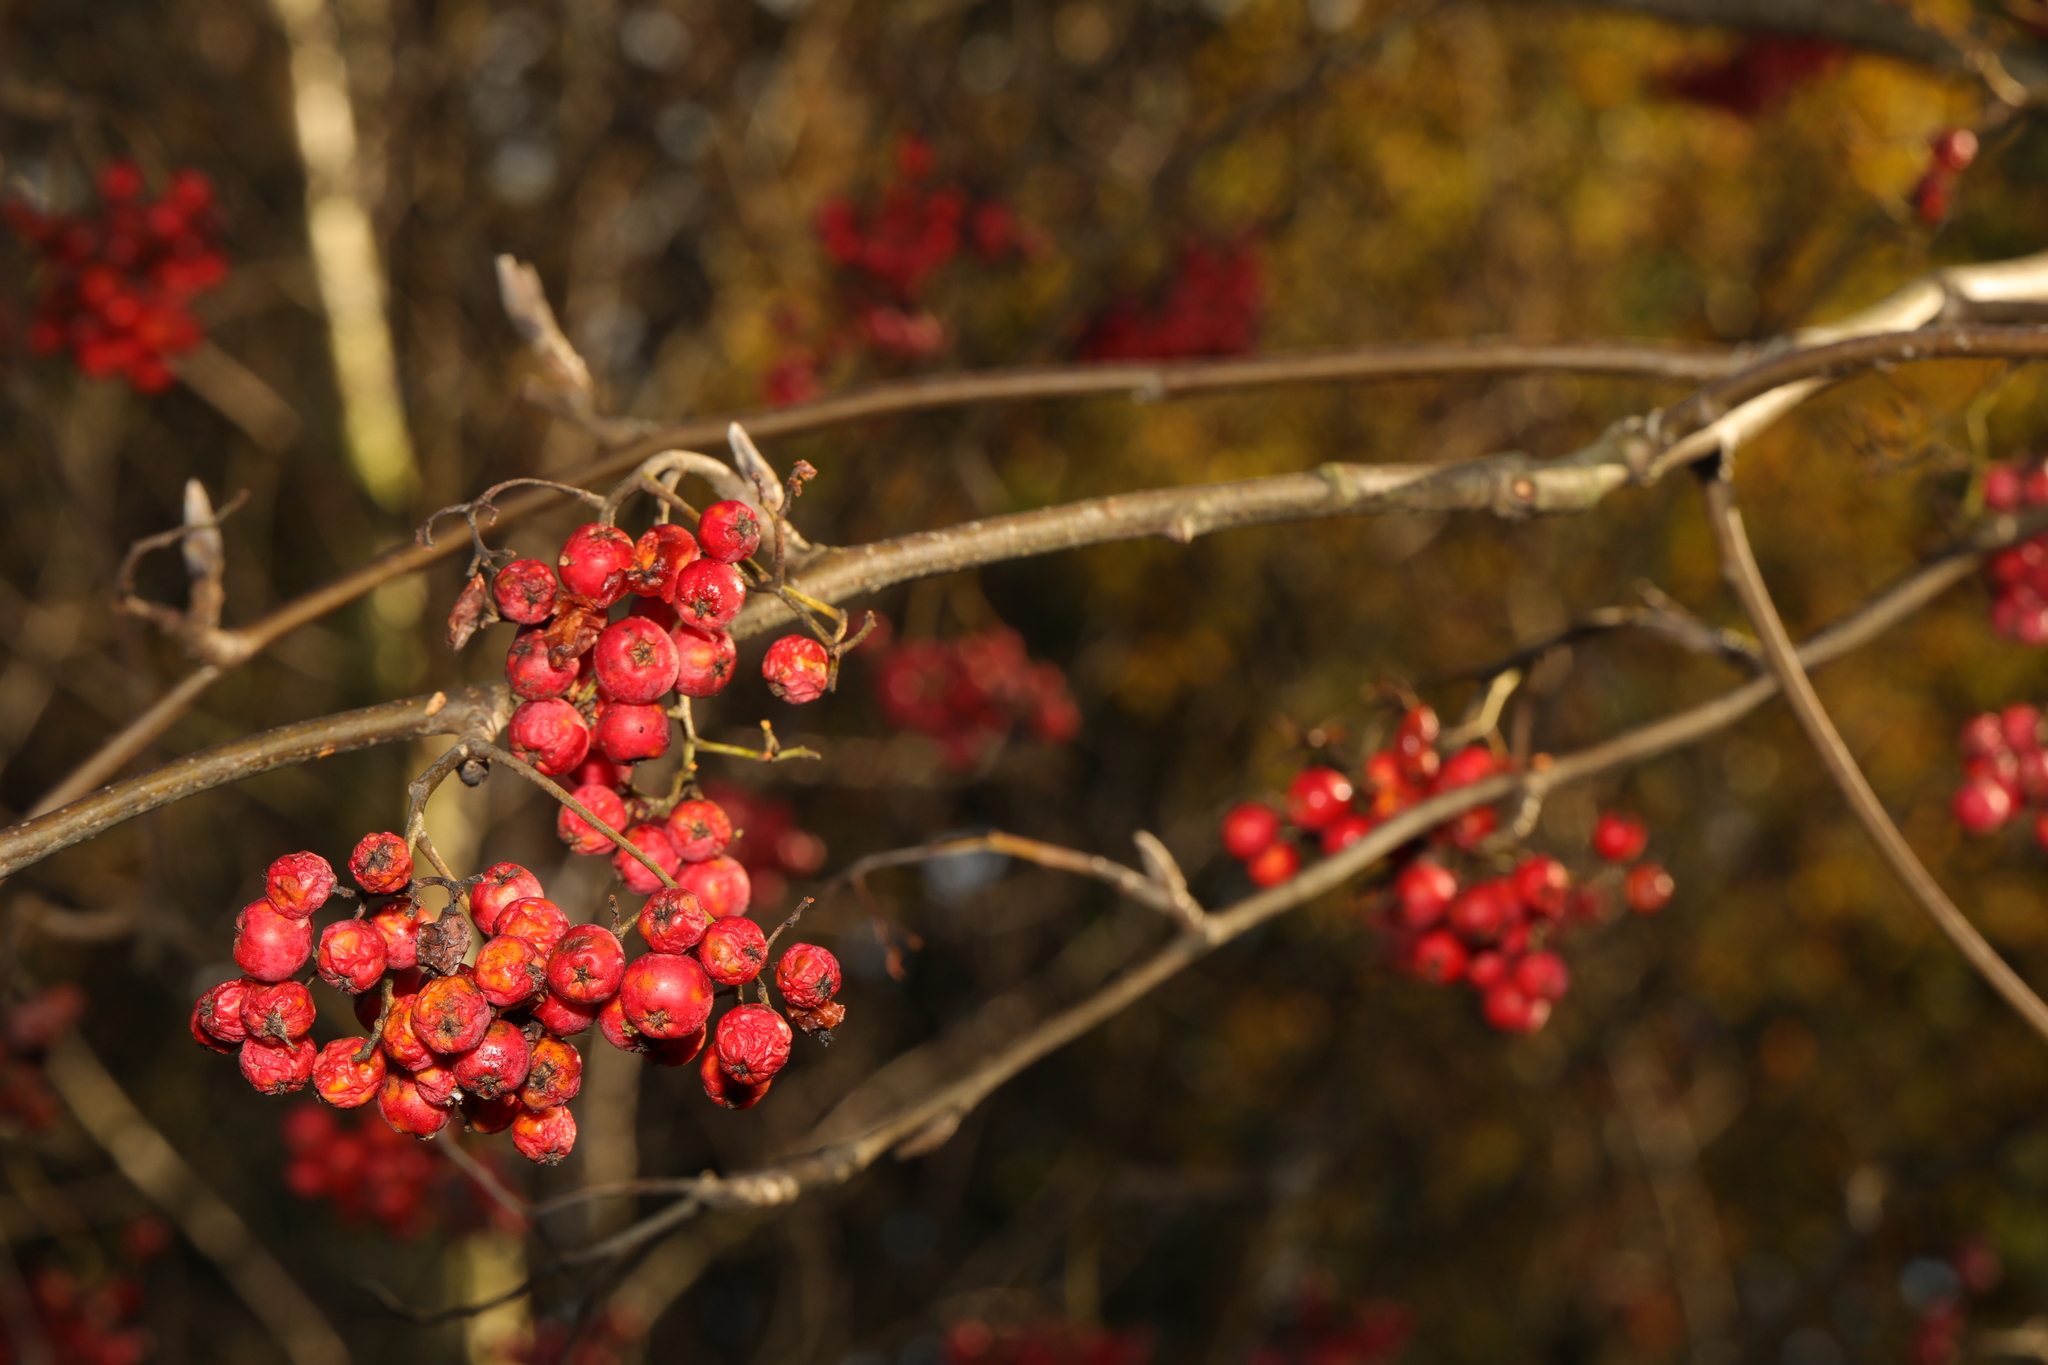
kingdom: Plantae
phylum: Tracheophyta
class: Magnoliopsida
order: Rosales
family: Rosaceae
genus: Sorbus
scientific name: Sorbus aucuparia
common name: Rowan
